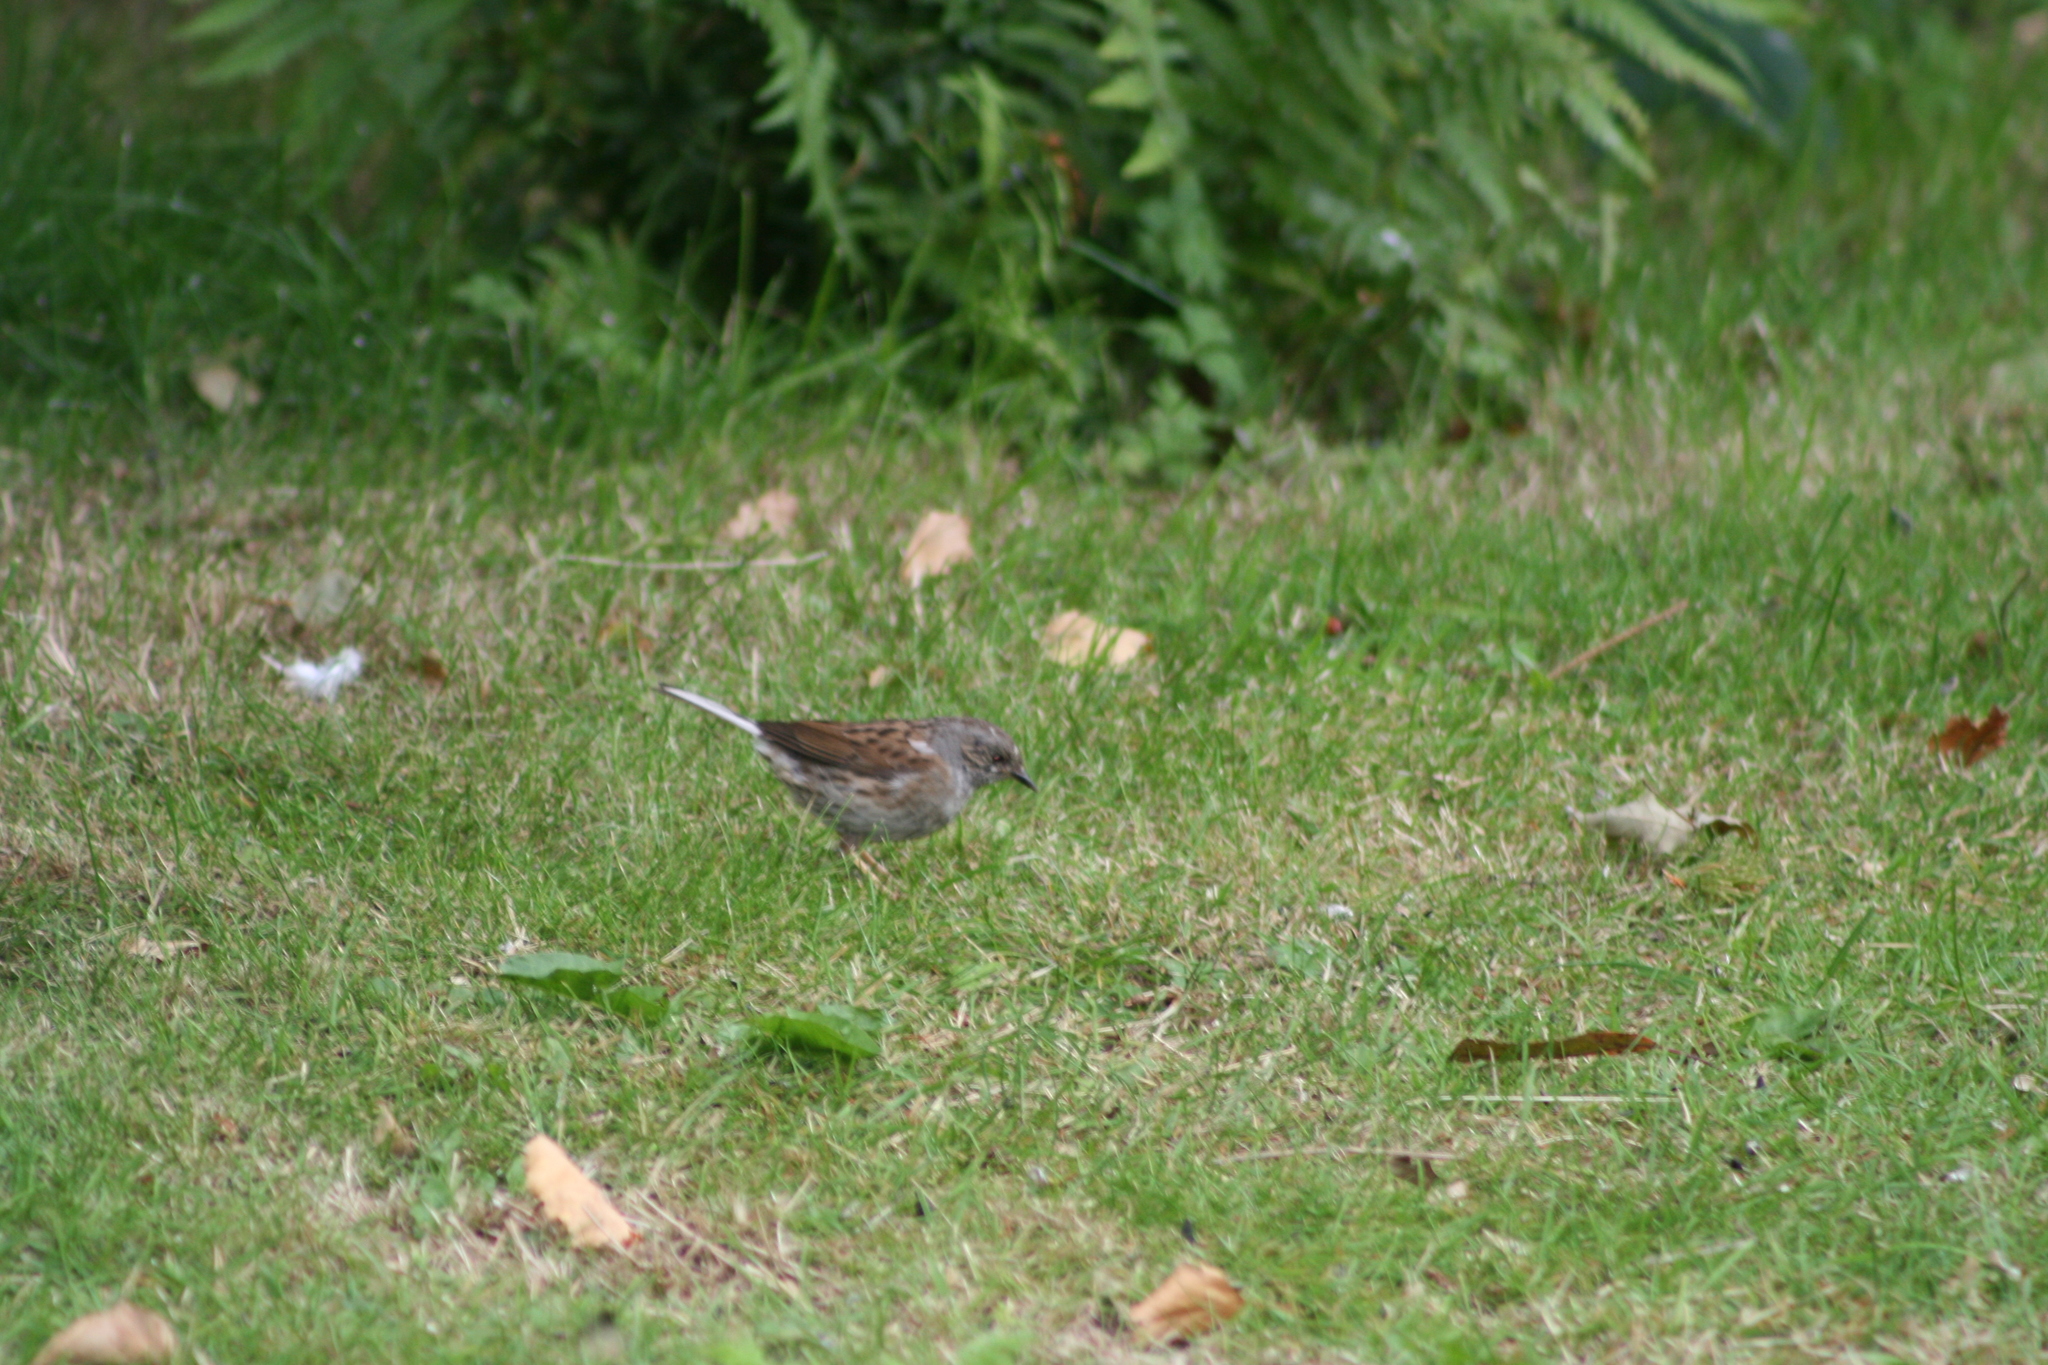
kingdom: Animalia
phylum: Chordata
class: Aves
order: Passeriformes
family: Prunellidae
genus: Prunella
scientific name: Prunella modularis
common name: Dunnock
